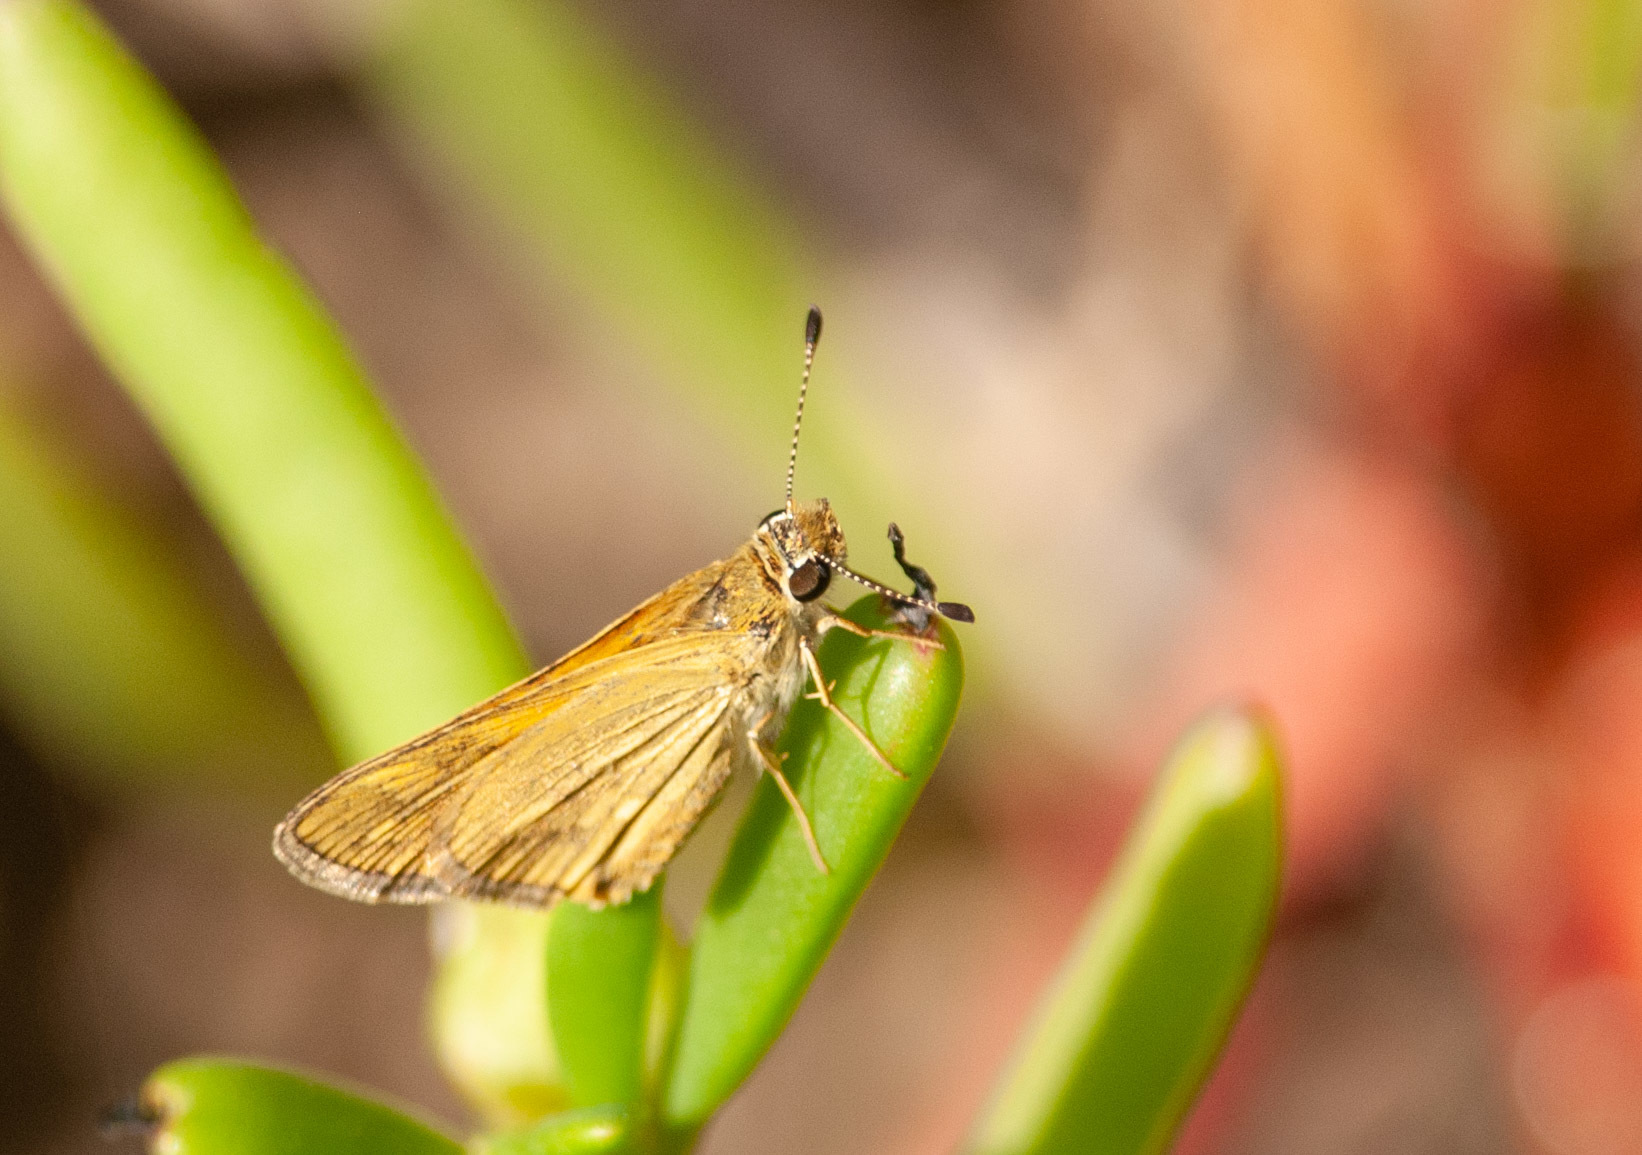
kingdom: Animalia
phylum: Arthropoda
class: Insecta
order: Lepidoptera
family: Hesperiidae
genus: Taractrocera
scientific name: Taractrocera ina
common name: Ina grass-dart
